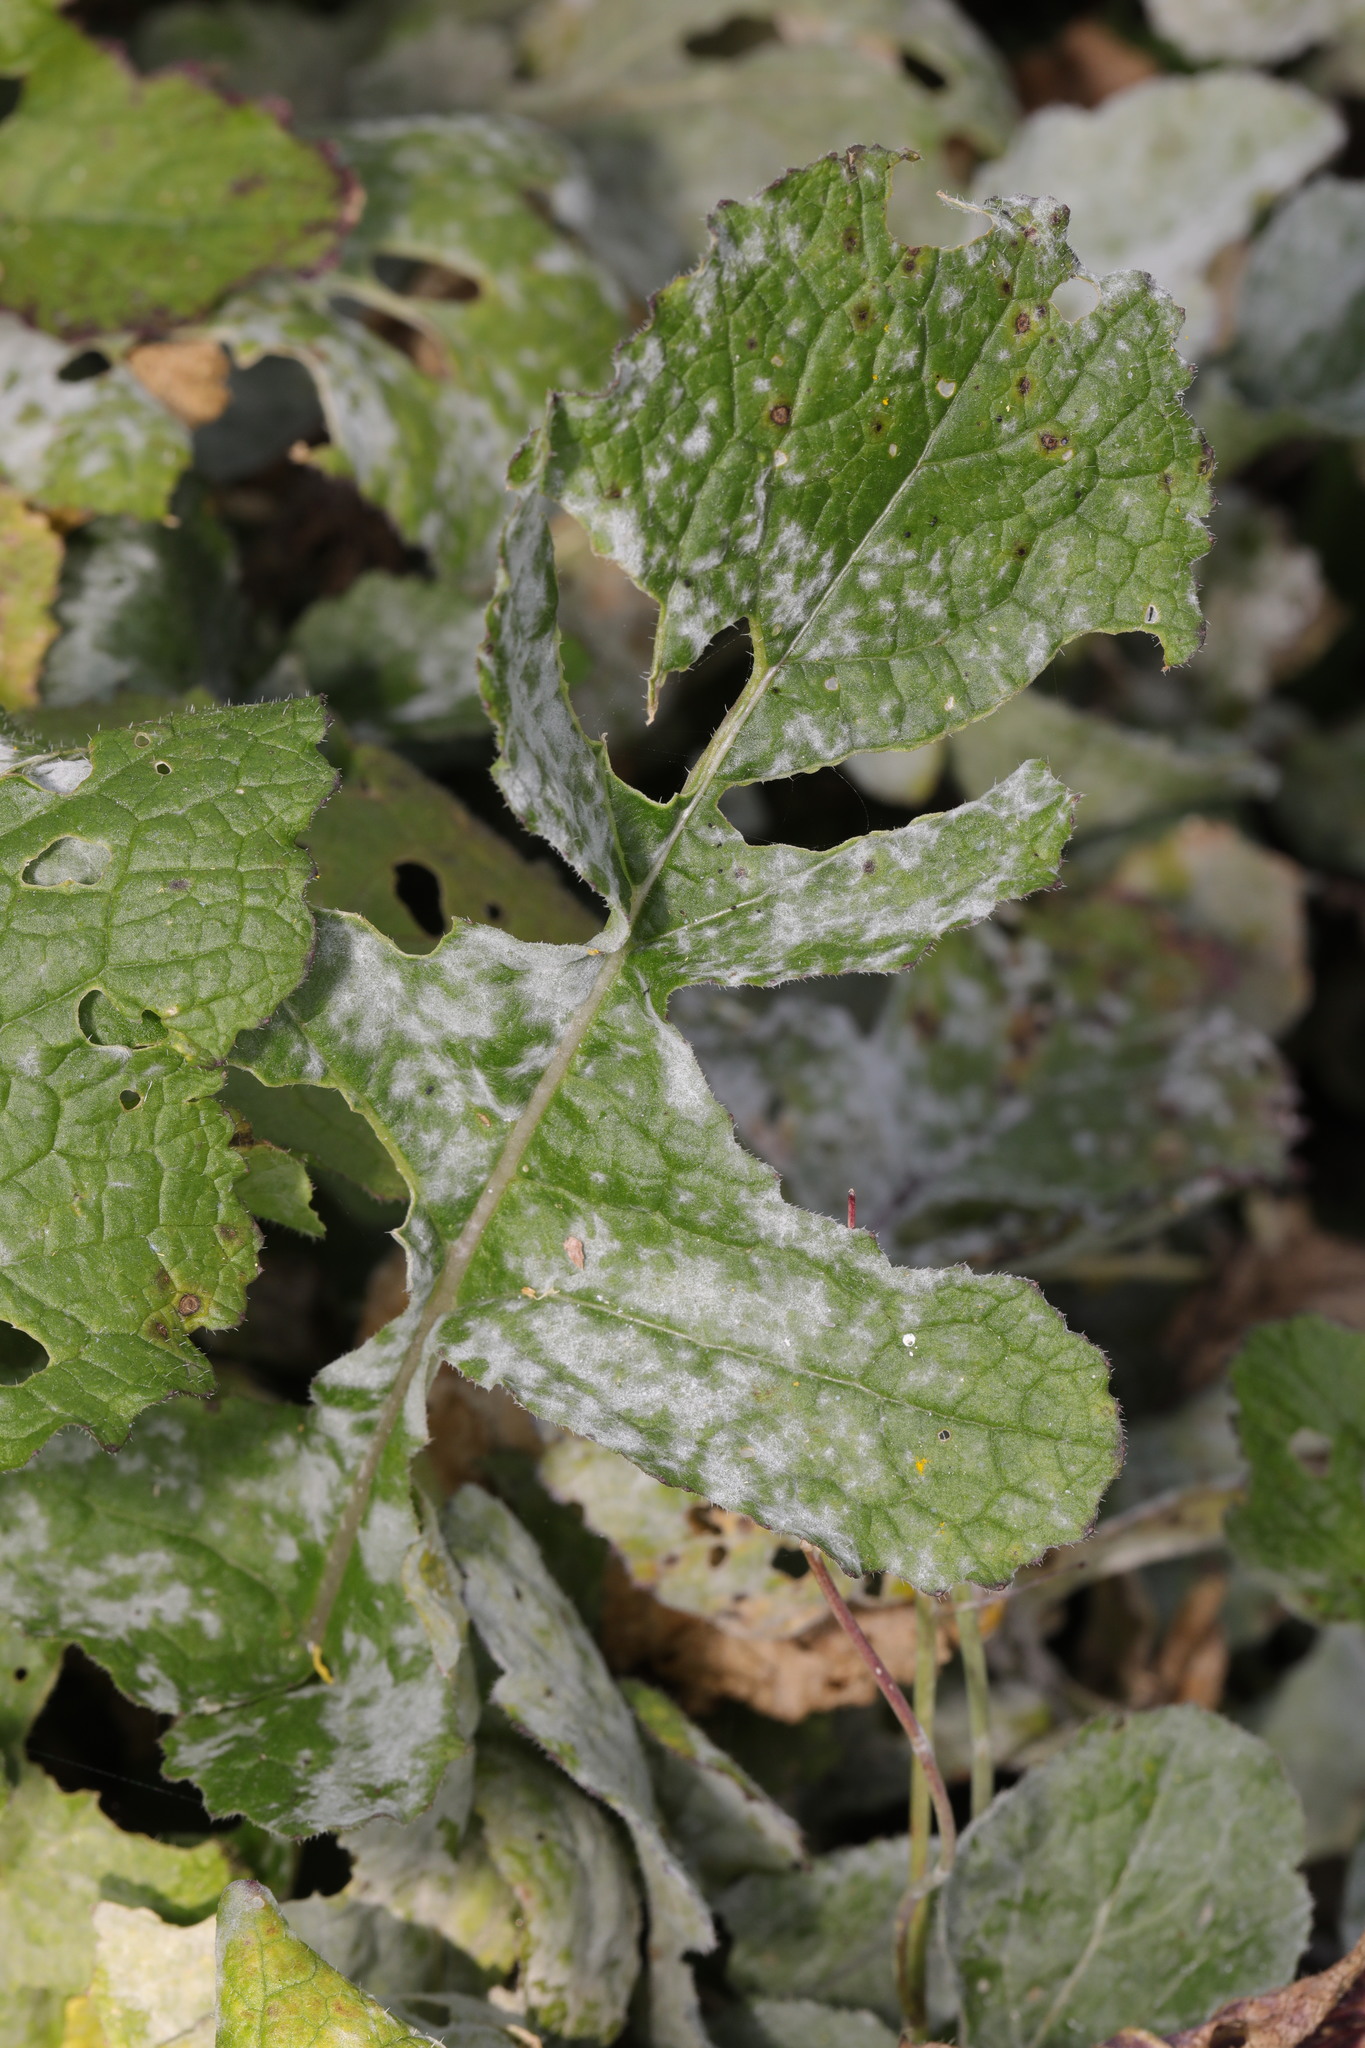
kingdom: Fungi
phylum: Ascomycota
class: Leotiomycetes
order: Helotiales
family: Erysiphaceae
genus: Erysiphe
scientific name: Erysiphe cruciferarum
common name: Brassica powdery mildew
